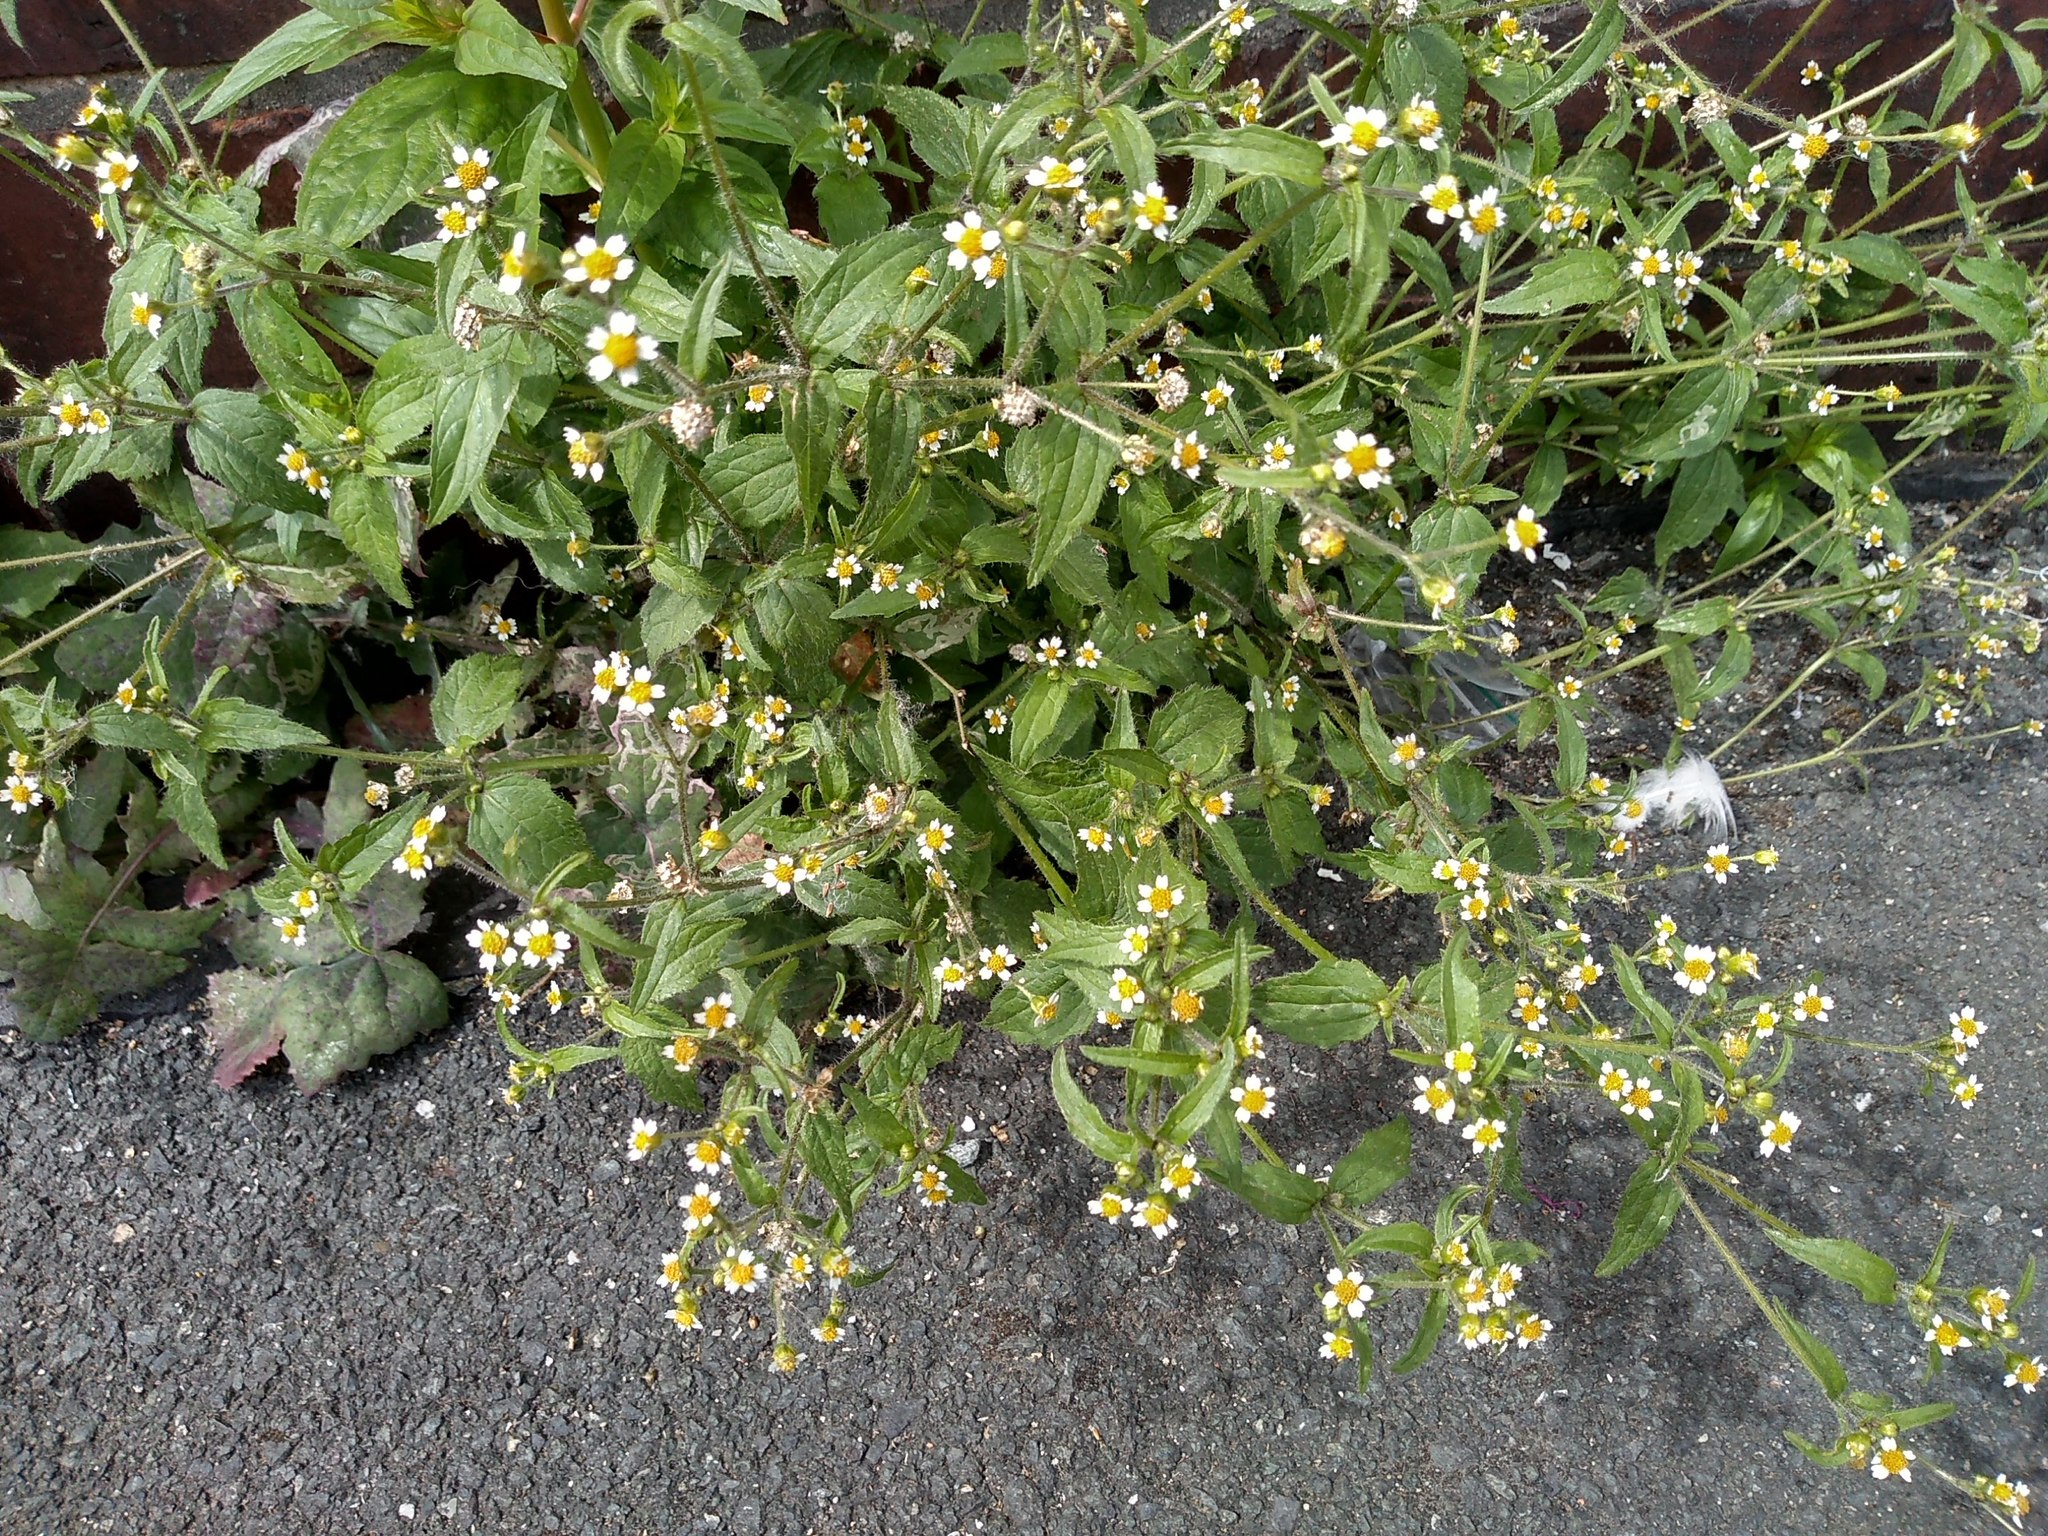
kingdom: Plantae
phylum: Tracheophyta
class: Magnoliopsida
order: Asterales
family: Asteraceae
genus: Galinsoga
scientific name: Galinsoga quadriradiata
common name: Shaggy soldier
